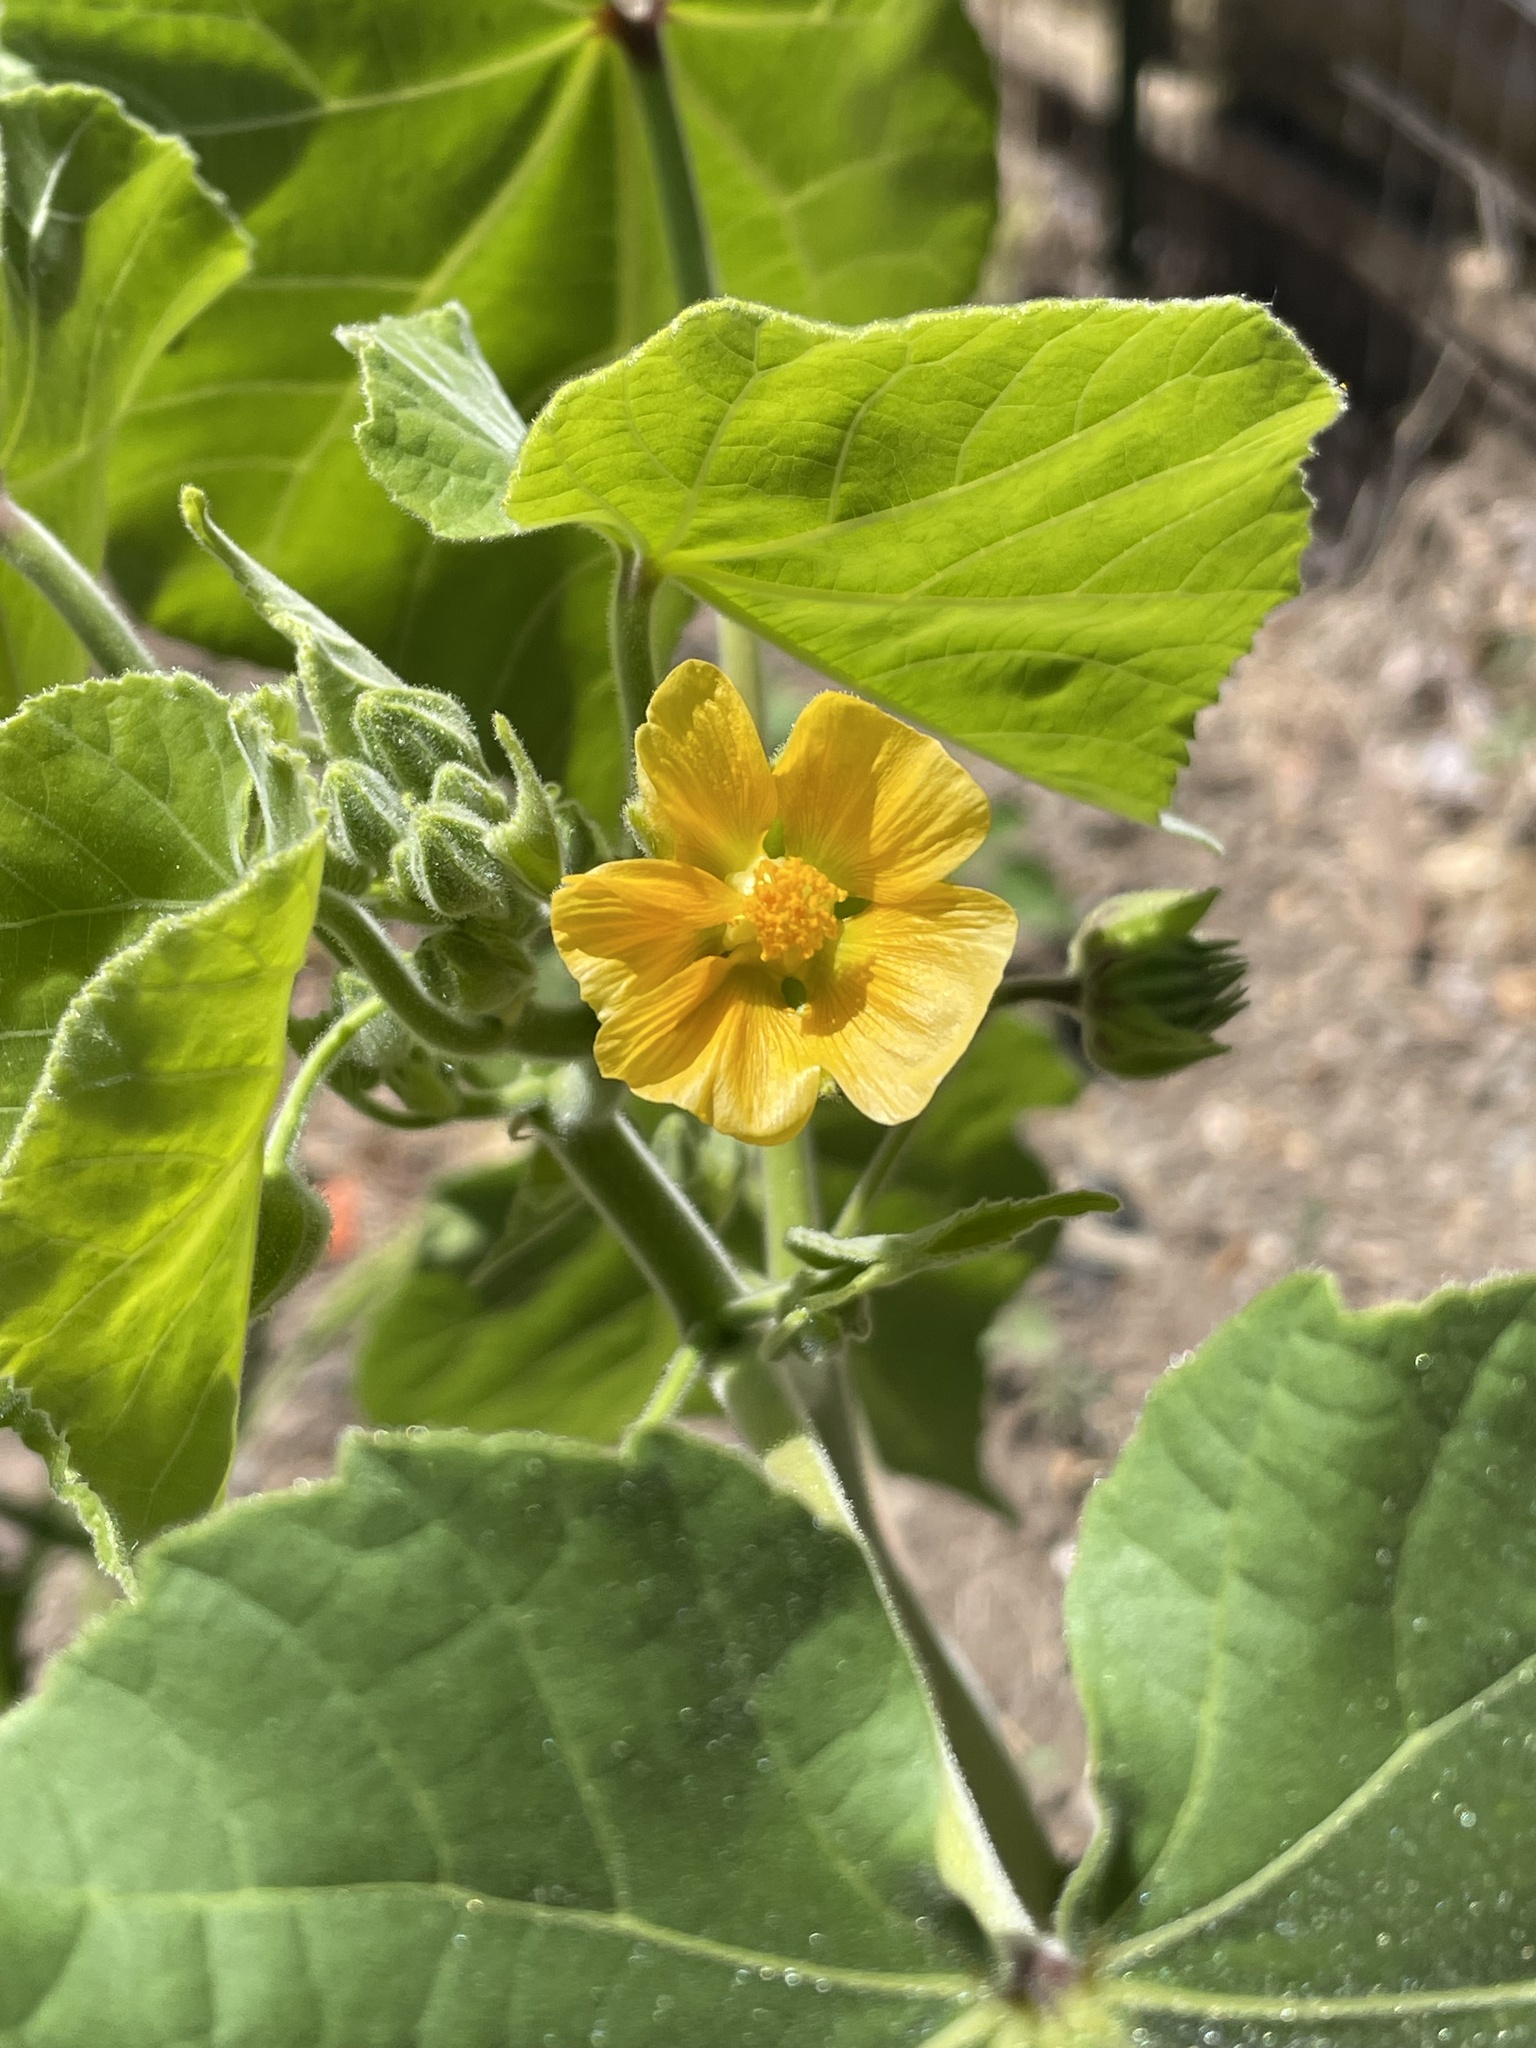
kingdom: Plantae
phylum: Tracheophyta
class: Magnoliopsida
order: Malvales
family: Malvaceae
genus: Abutilon
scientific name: Abutilon theophrasti
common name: Velvetleaf
